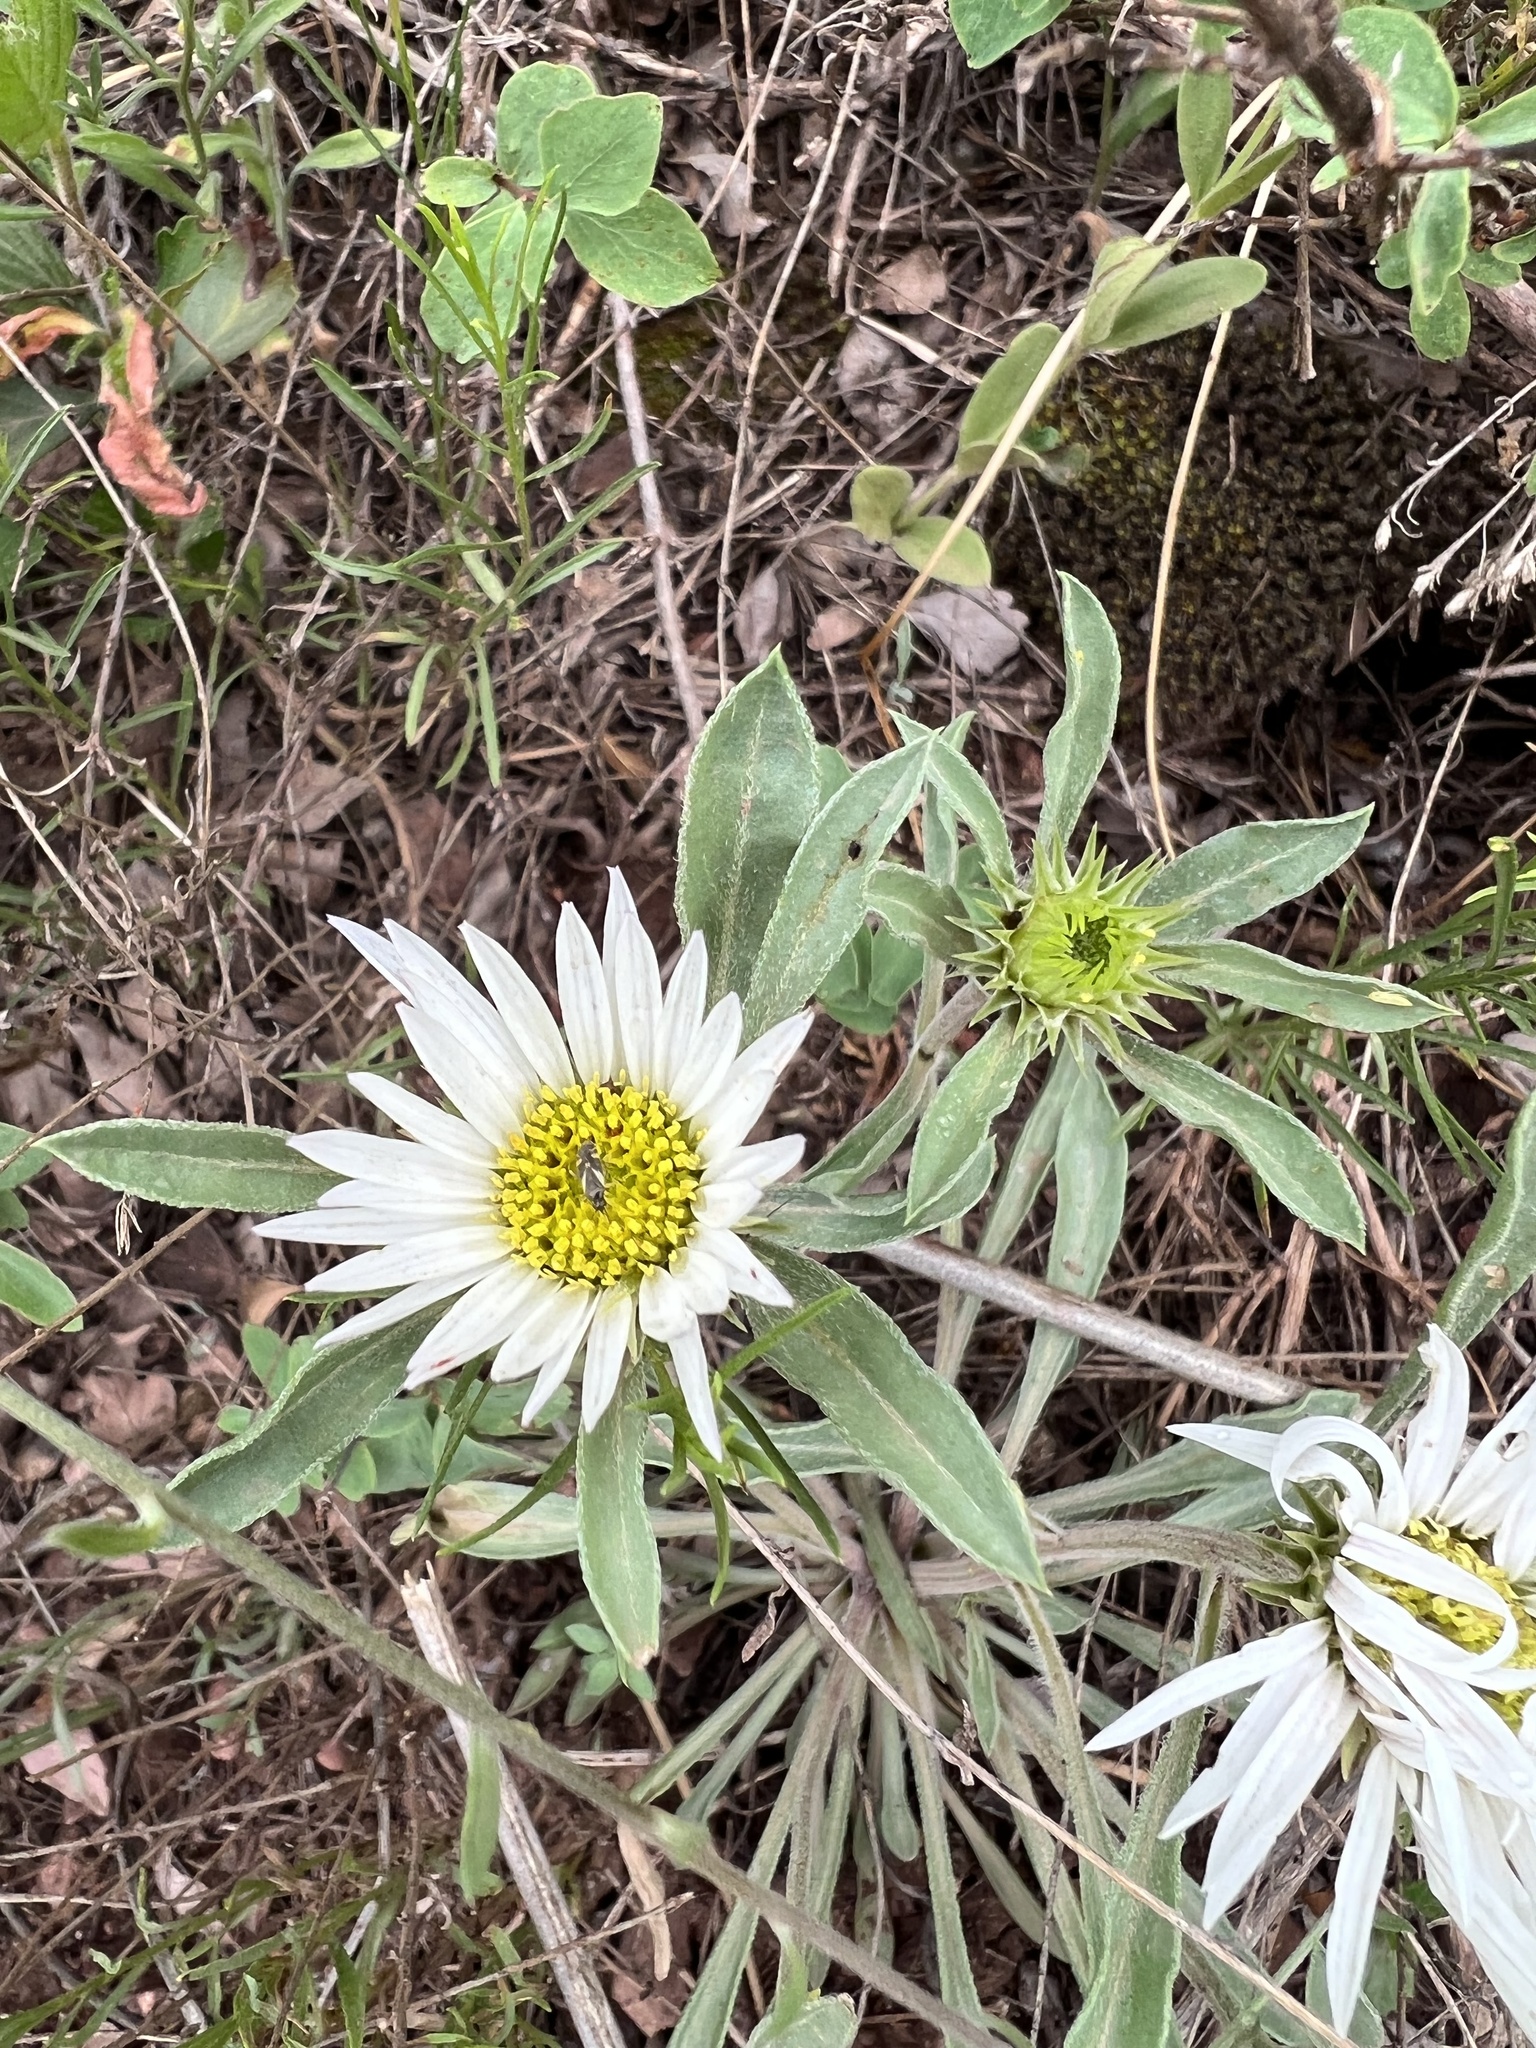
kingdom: Plantae
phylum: Tracheophyta
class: Magnoliopsida
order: Asterales
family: Asteraceae
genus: Townsendia
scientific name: Townsendia grandiflora
